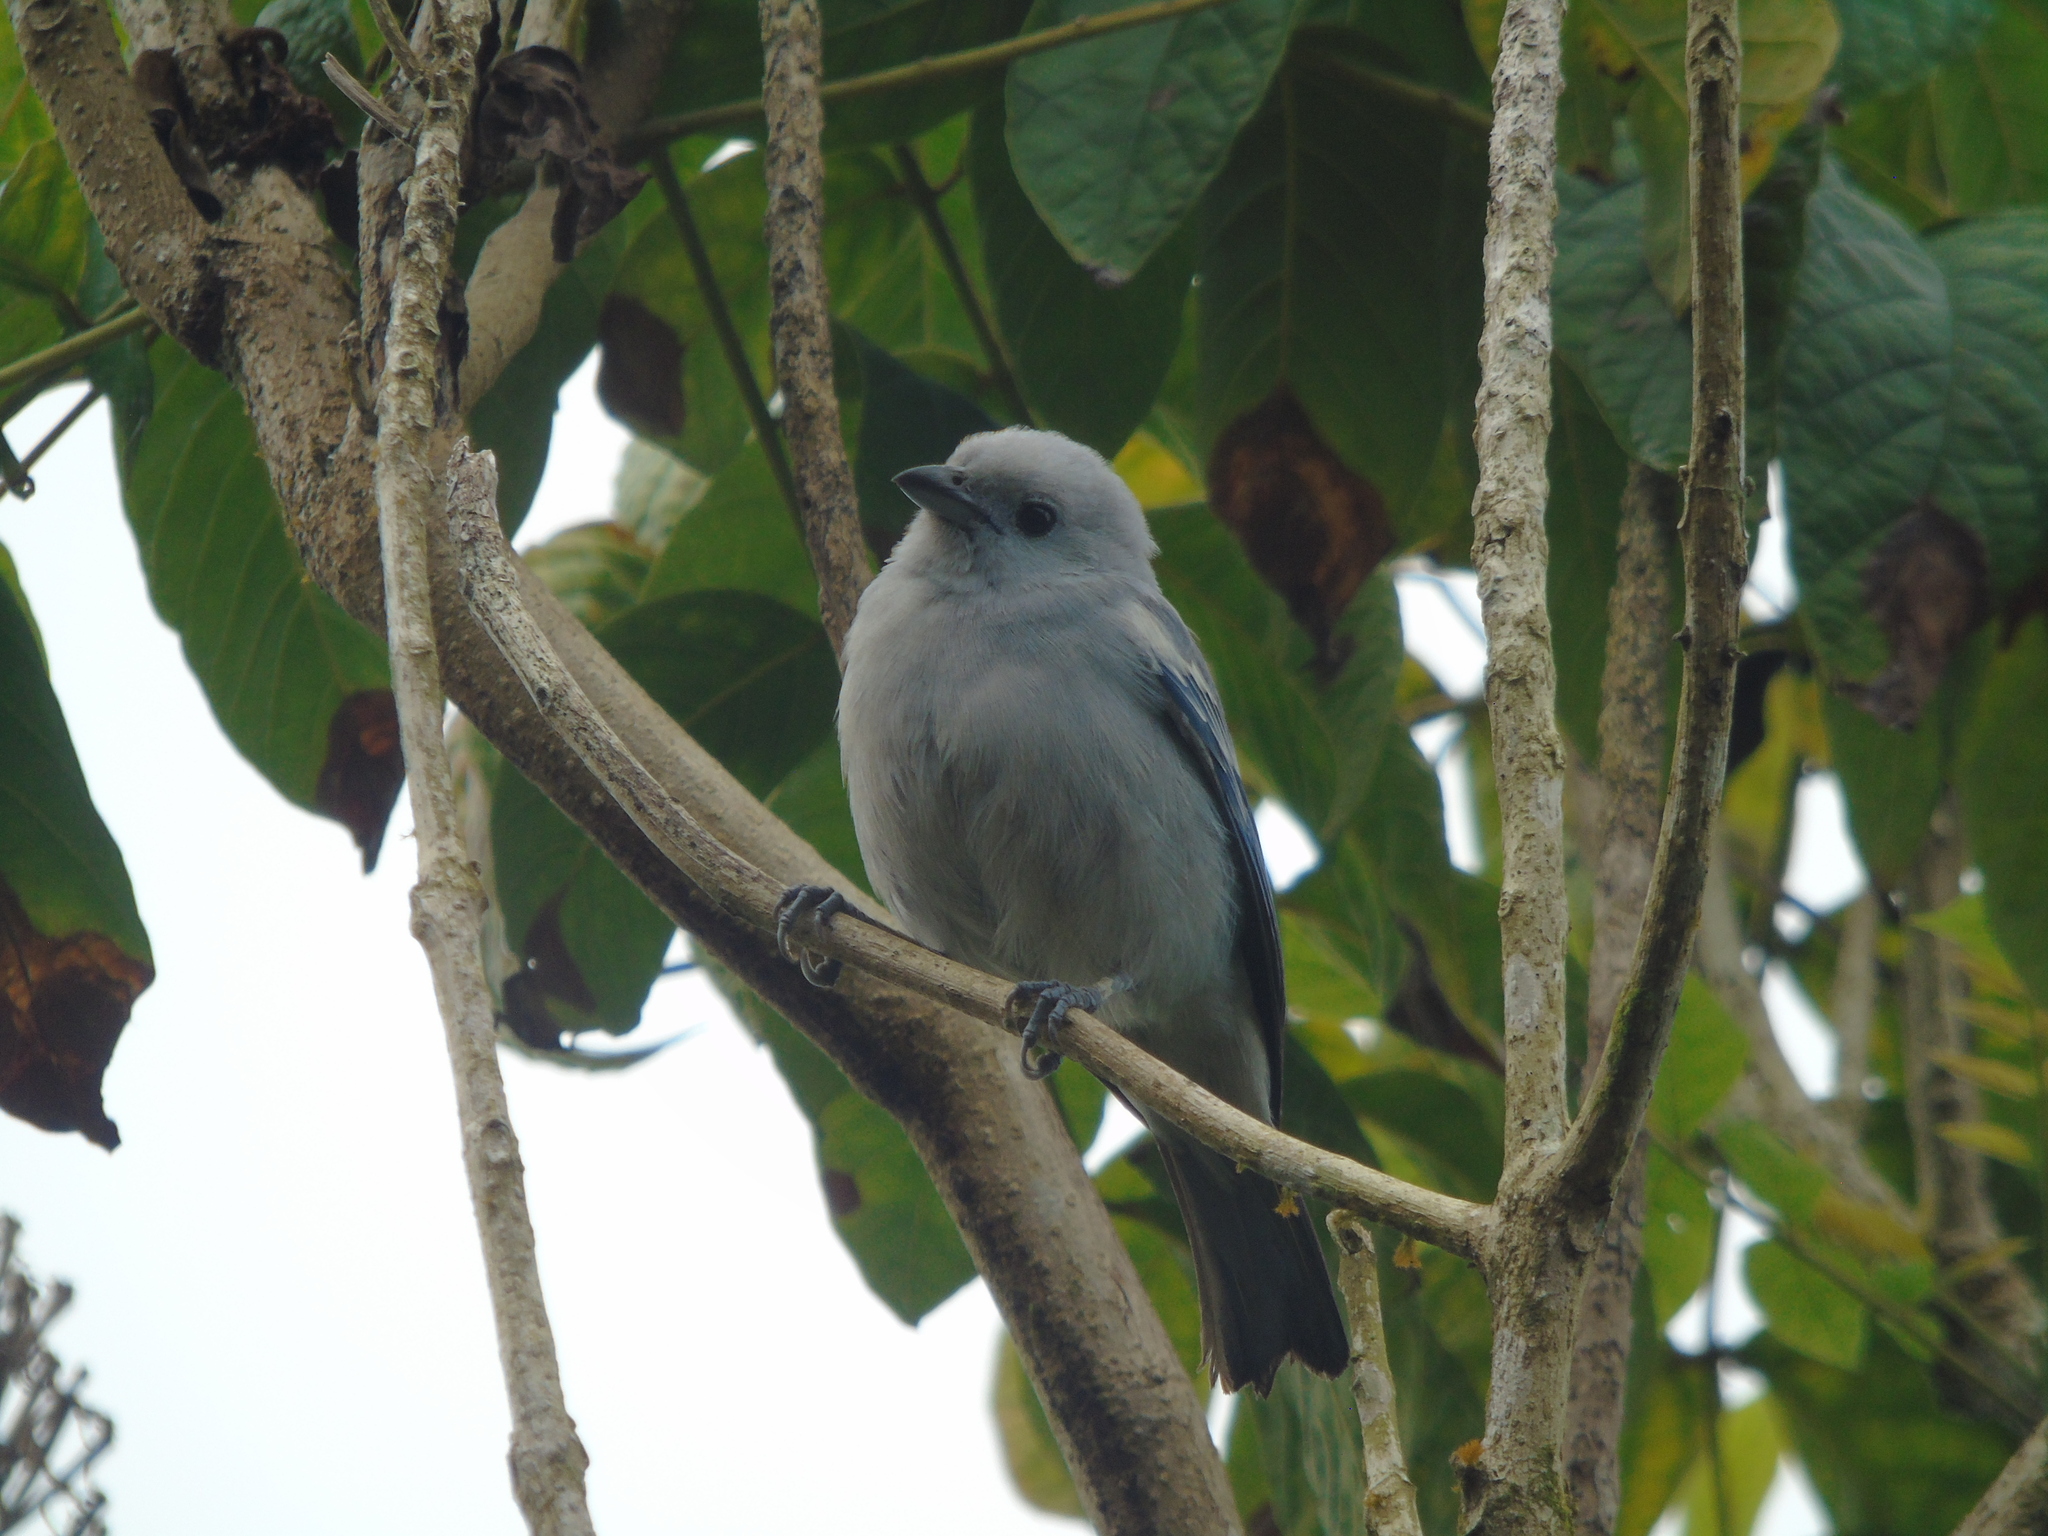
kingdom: Animalia
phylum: Chordata
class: Aves
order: Passeriformes
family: Thraupidae
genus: Thraupis
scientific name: Thraupis episcopus
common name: Blue-grey tanager
